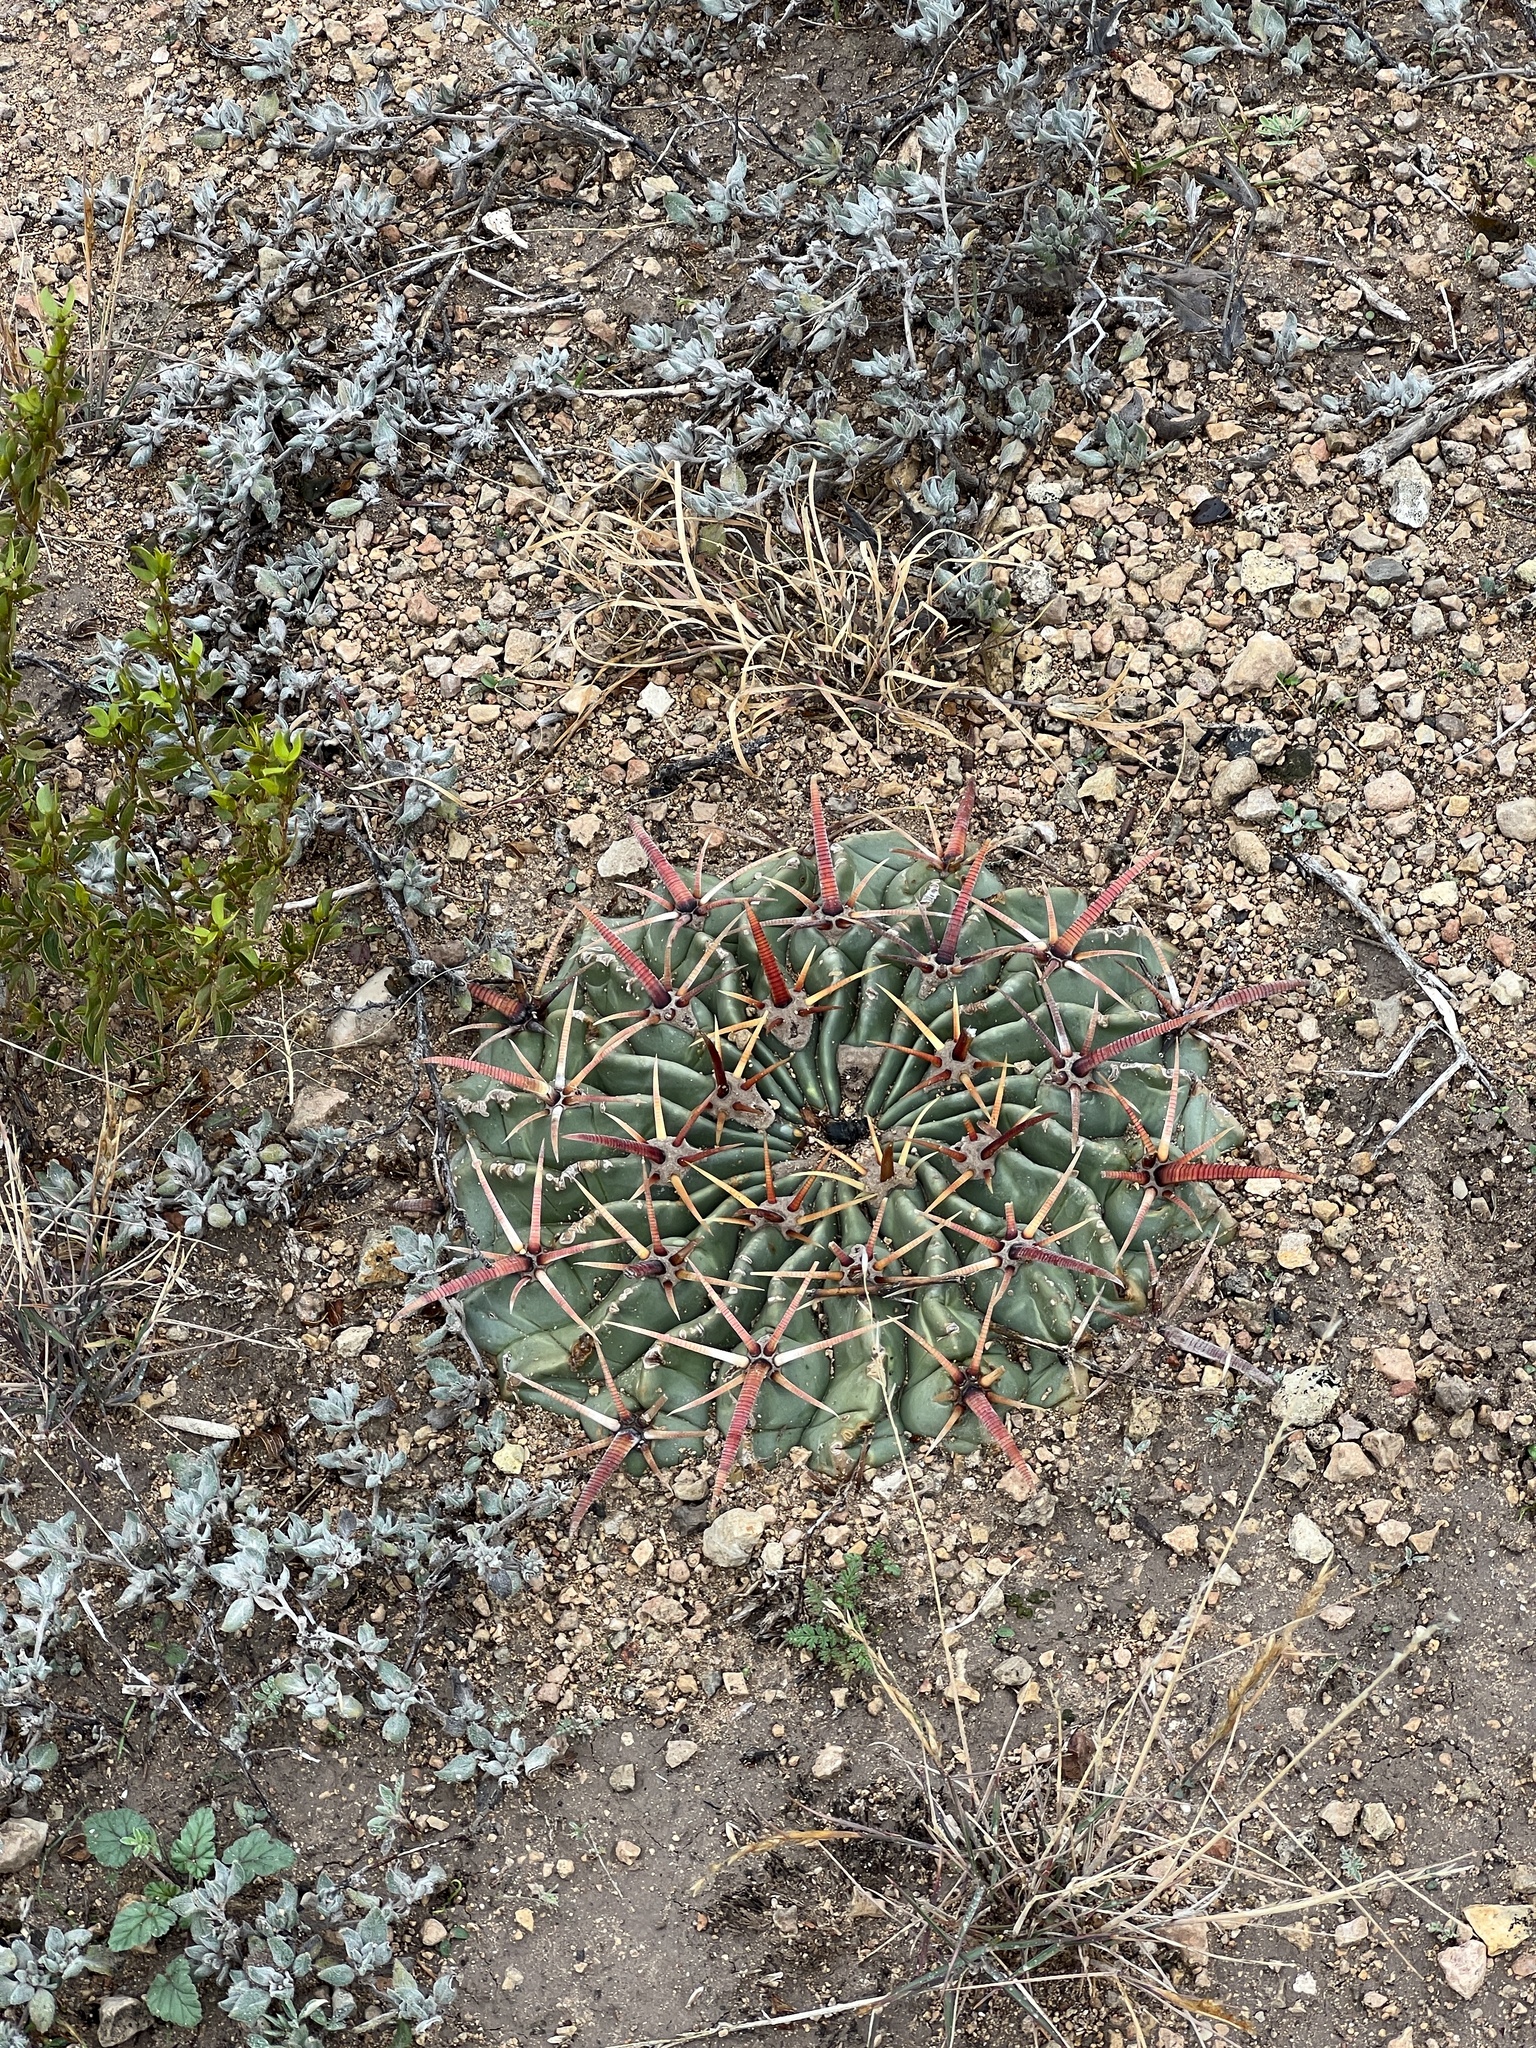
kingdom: Plantae
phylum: Tracheophyta
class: Magnoliopsida
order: Caryophyllales
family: Cactaceae
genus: Echinocactus
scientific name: Echinocactus texensis
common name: Devil's pincushion
